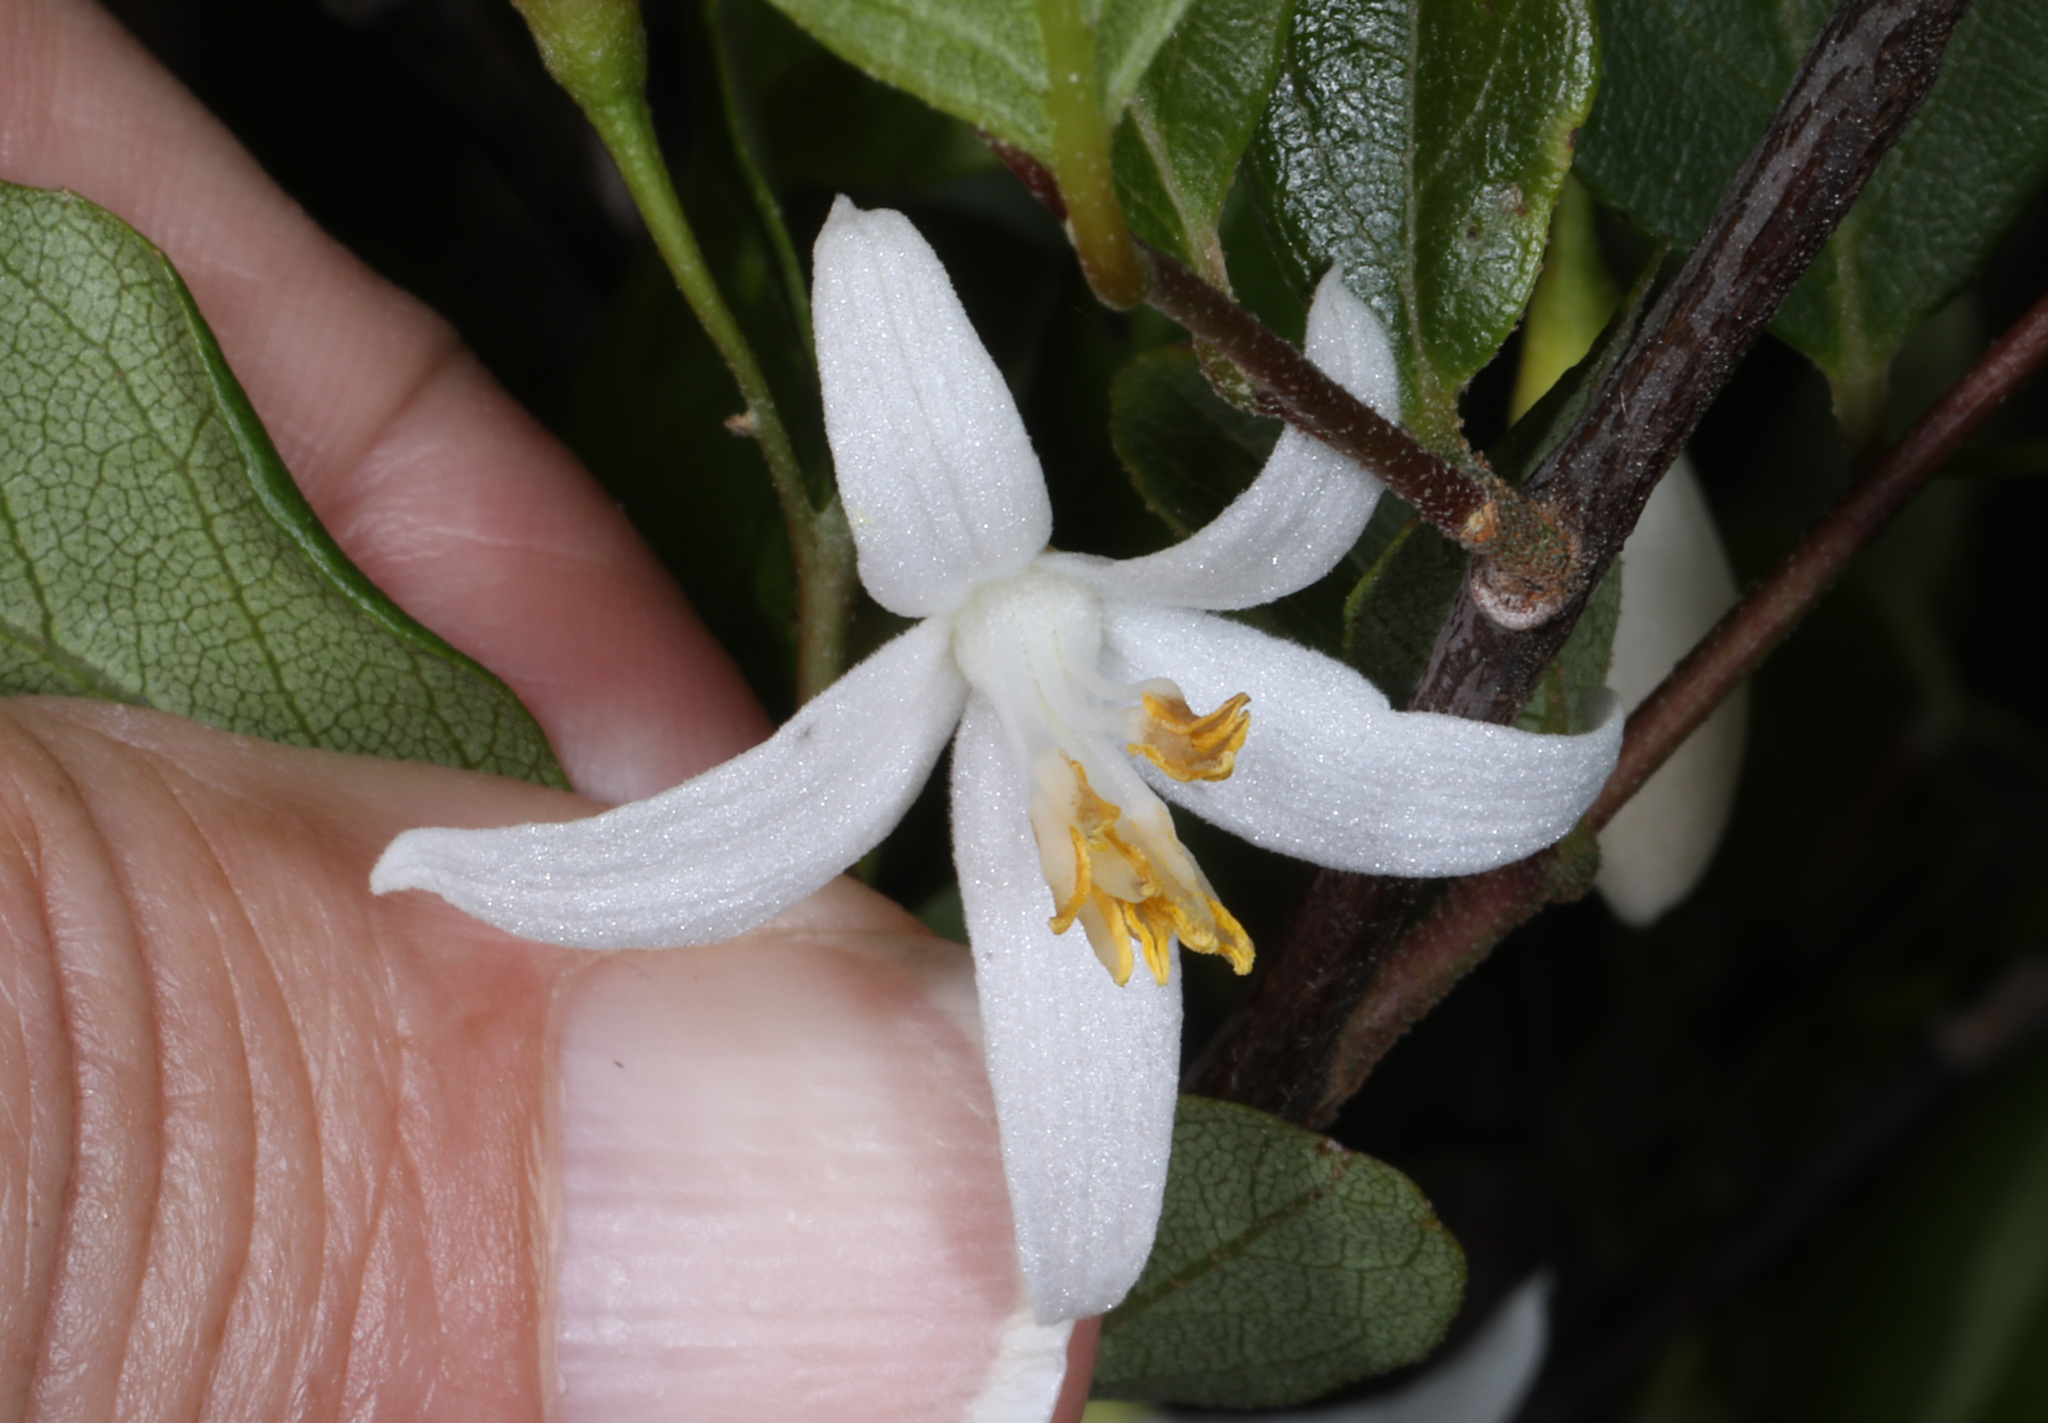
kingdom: Plantae
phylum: Tracheophyta
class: Magnoliopsida
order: Ericales
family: Styracaceae
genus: Styrax
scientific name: Styrax americanus
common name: American snowbell
